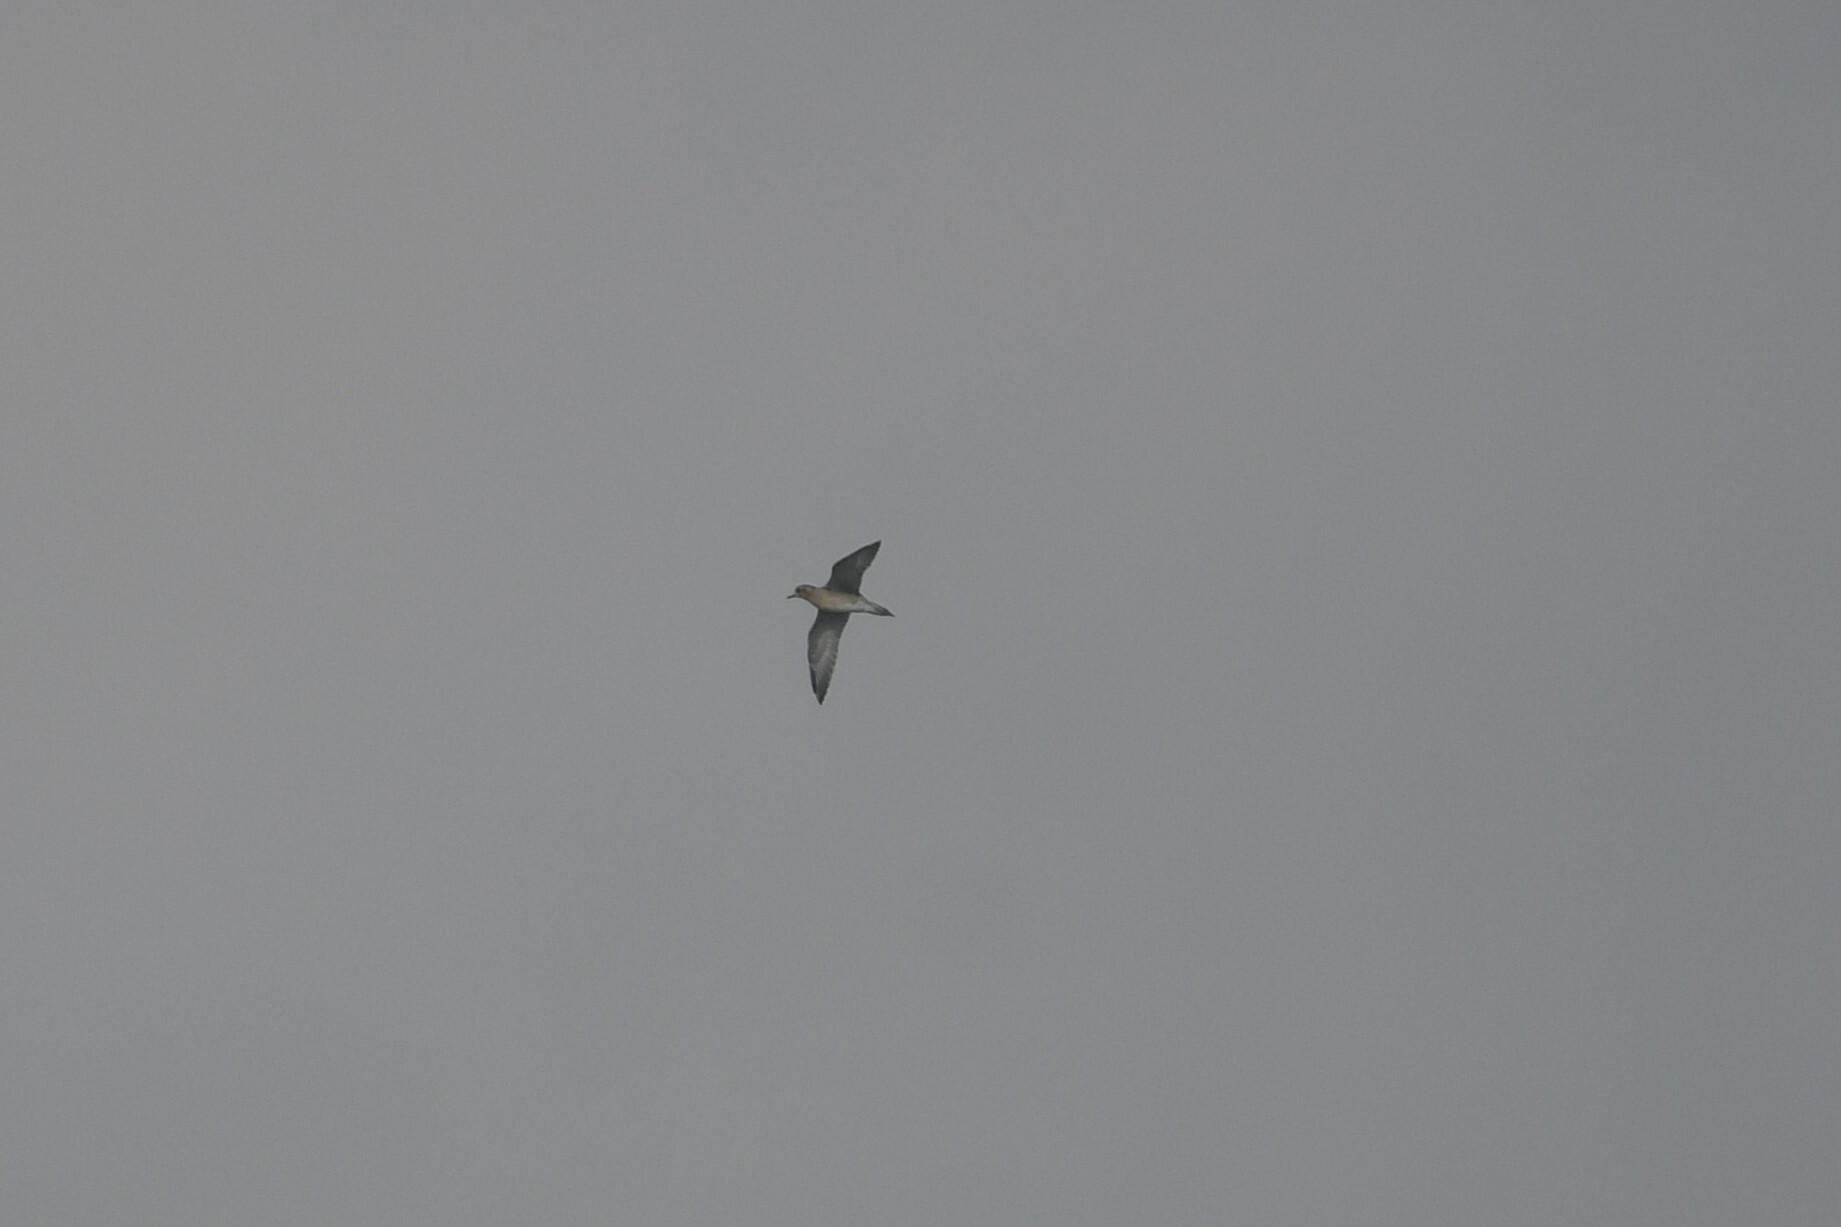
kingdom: Animalia
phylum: Chordata
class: Aves
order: Charadriiformes
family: Charadriidae
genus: Pluvialis
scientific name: Pluvialis fulva
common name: Pacific golden plover
